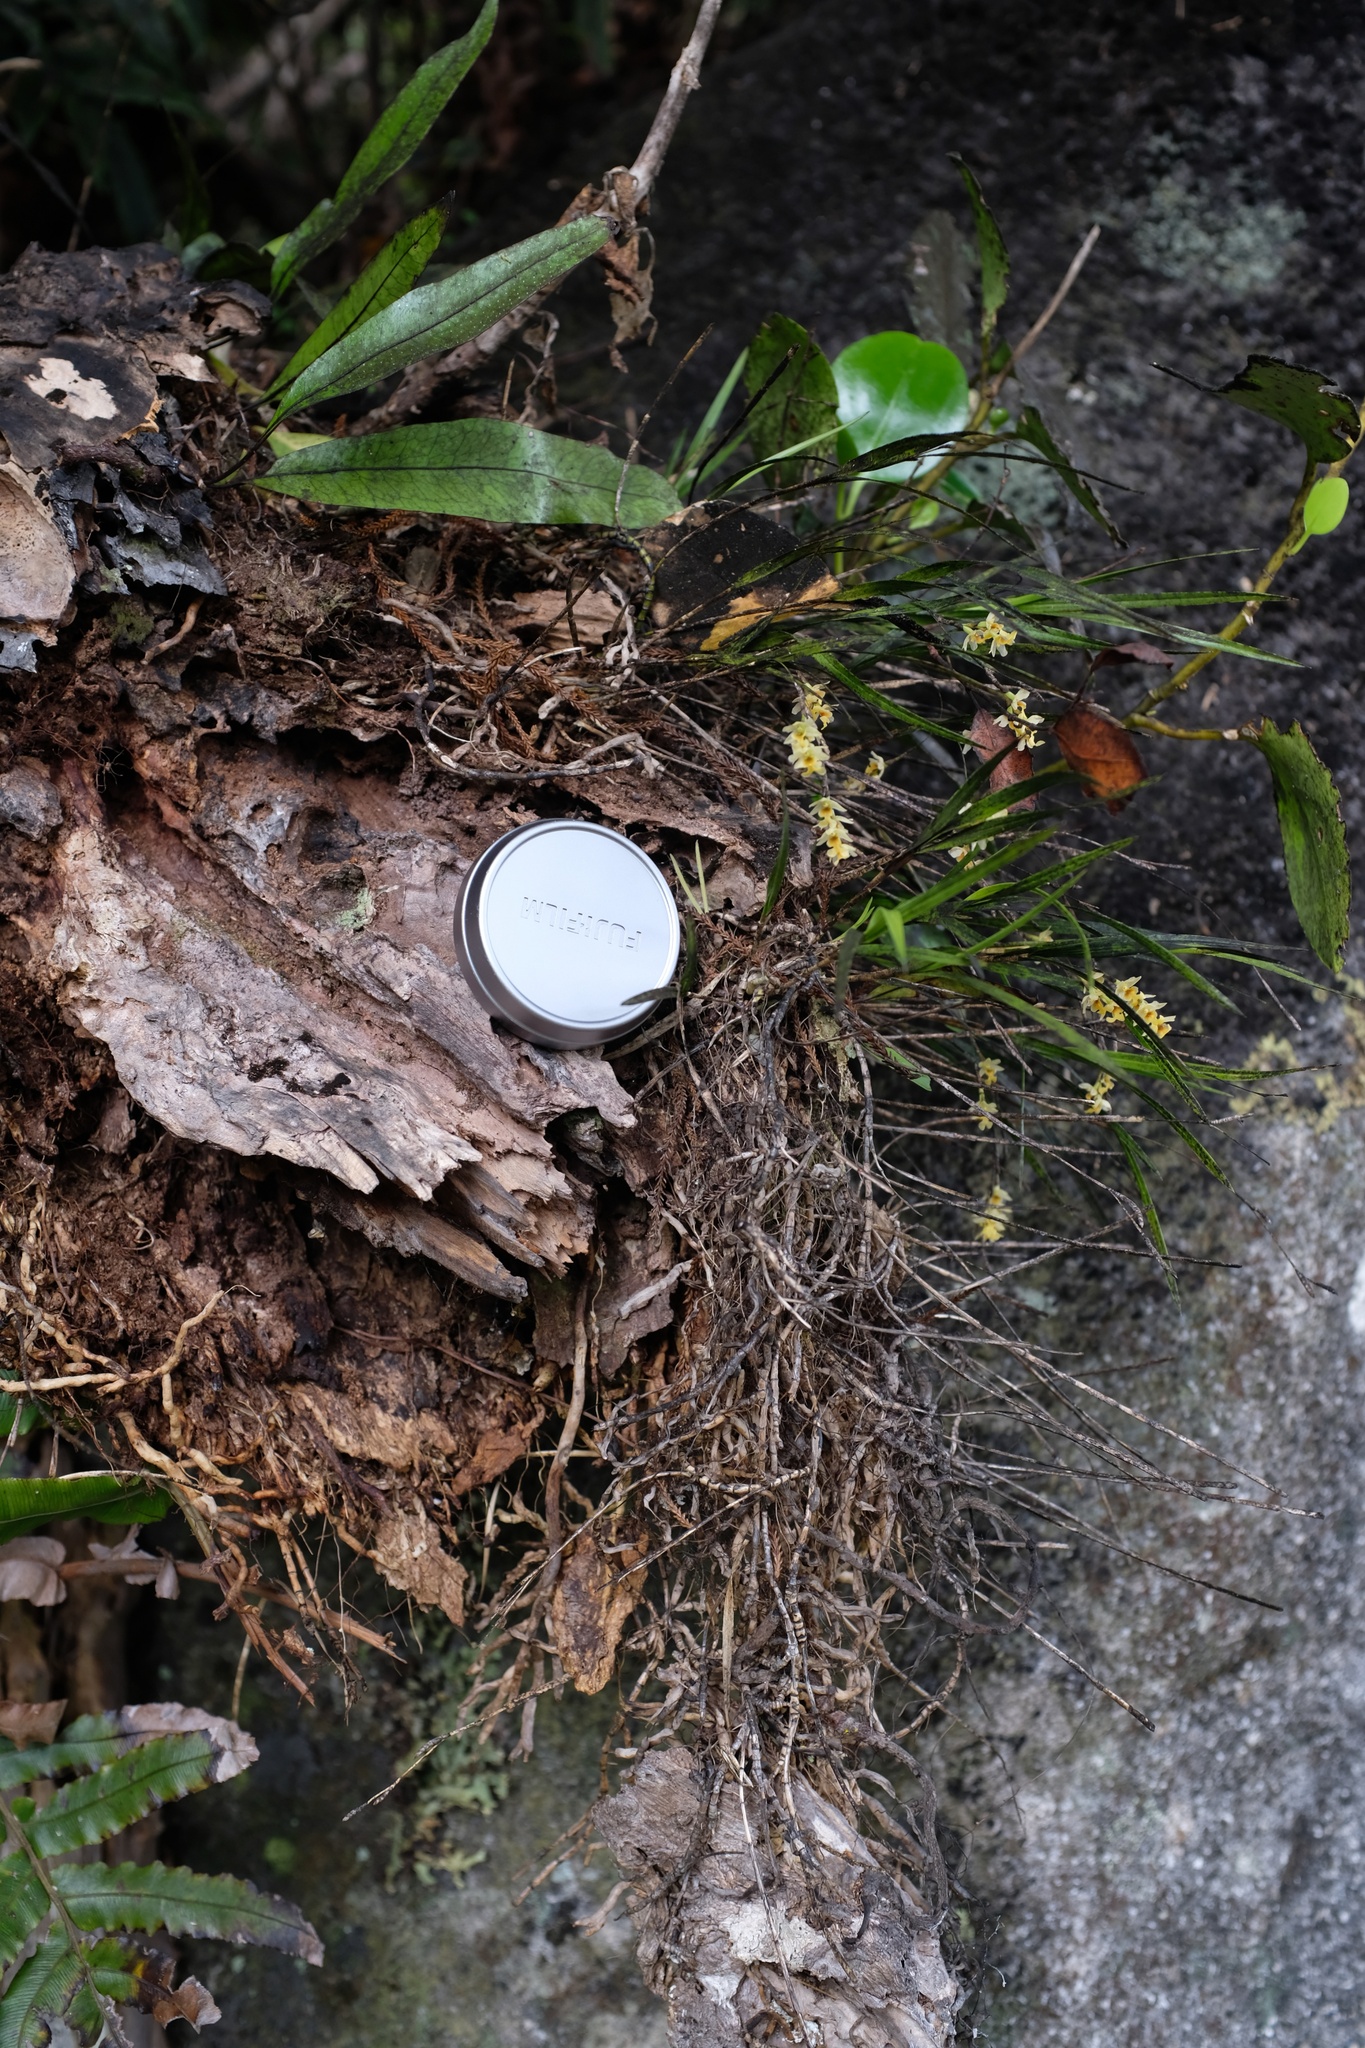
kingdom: Plantae
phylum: Tracheophyta
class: Liliopsida
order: Asparagales
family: Orchidaceae
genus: Earina
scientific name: Earina mucronata
